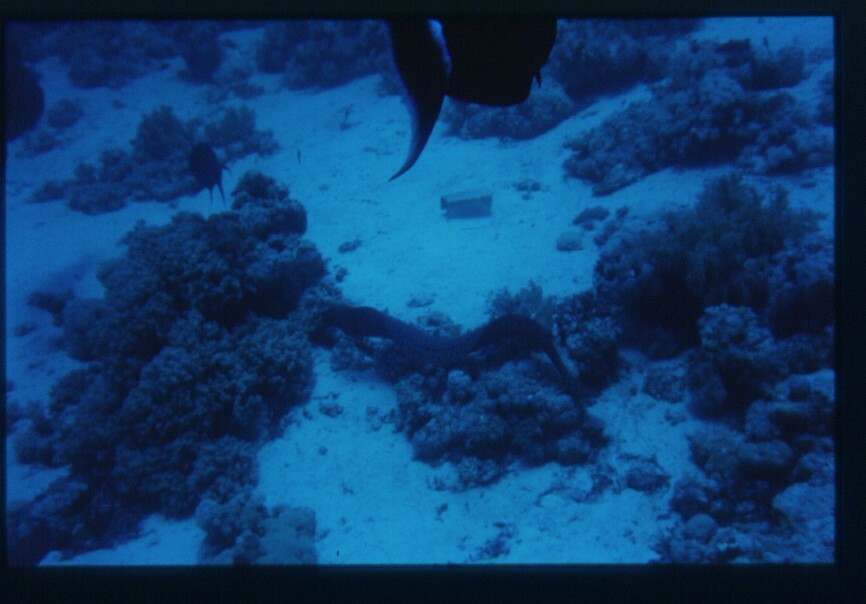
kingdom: Animalia
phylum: Chordata
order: Anguilliformes
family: Muraenidae
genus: Gymnothorax
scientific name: Gymnothorax javanicus
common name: Giant moray
